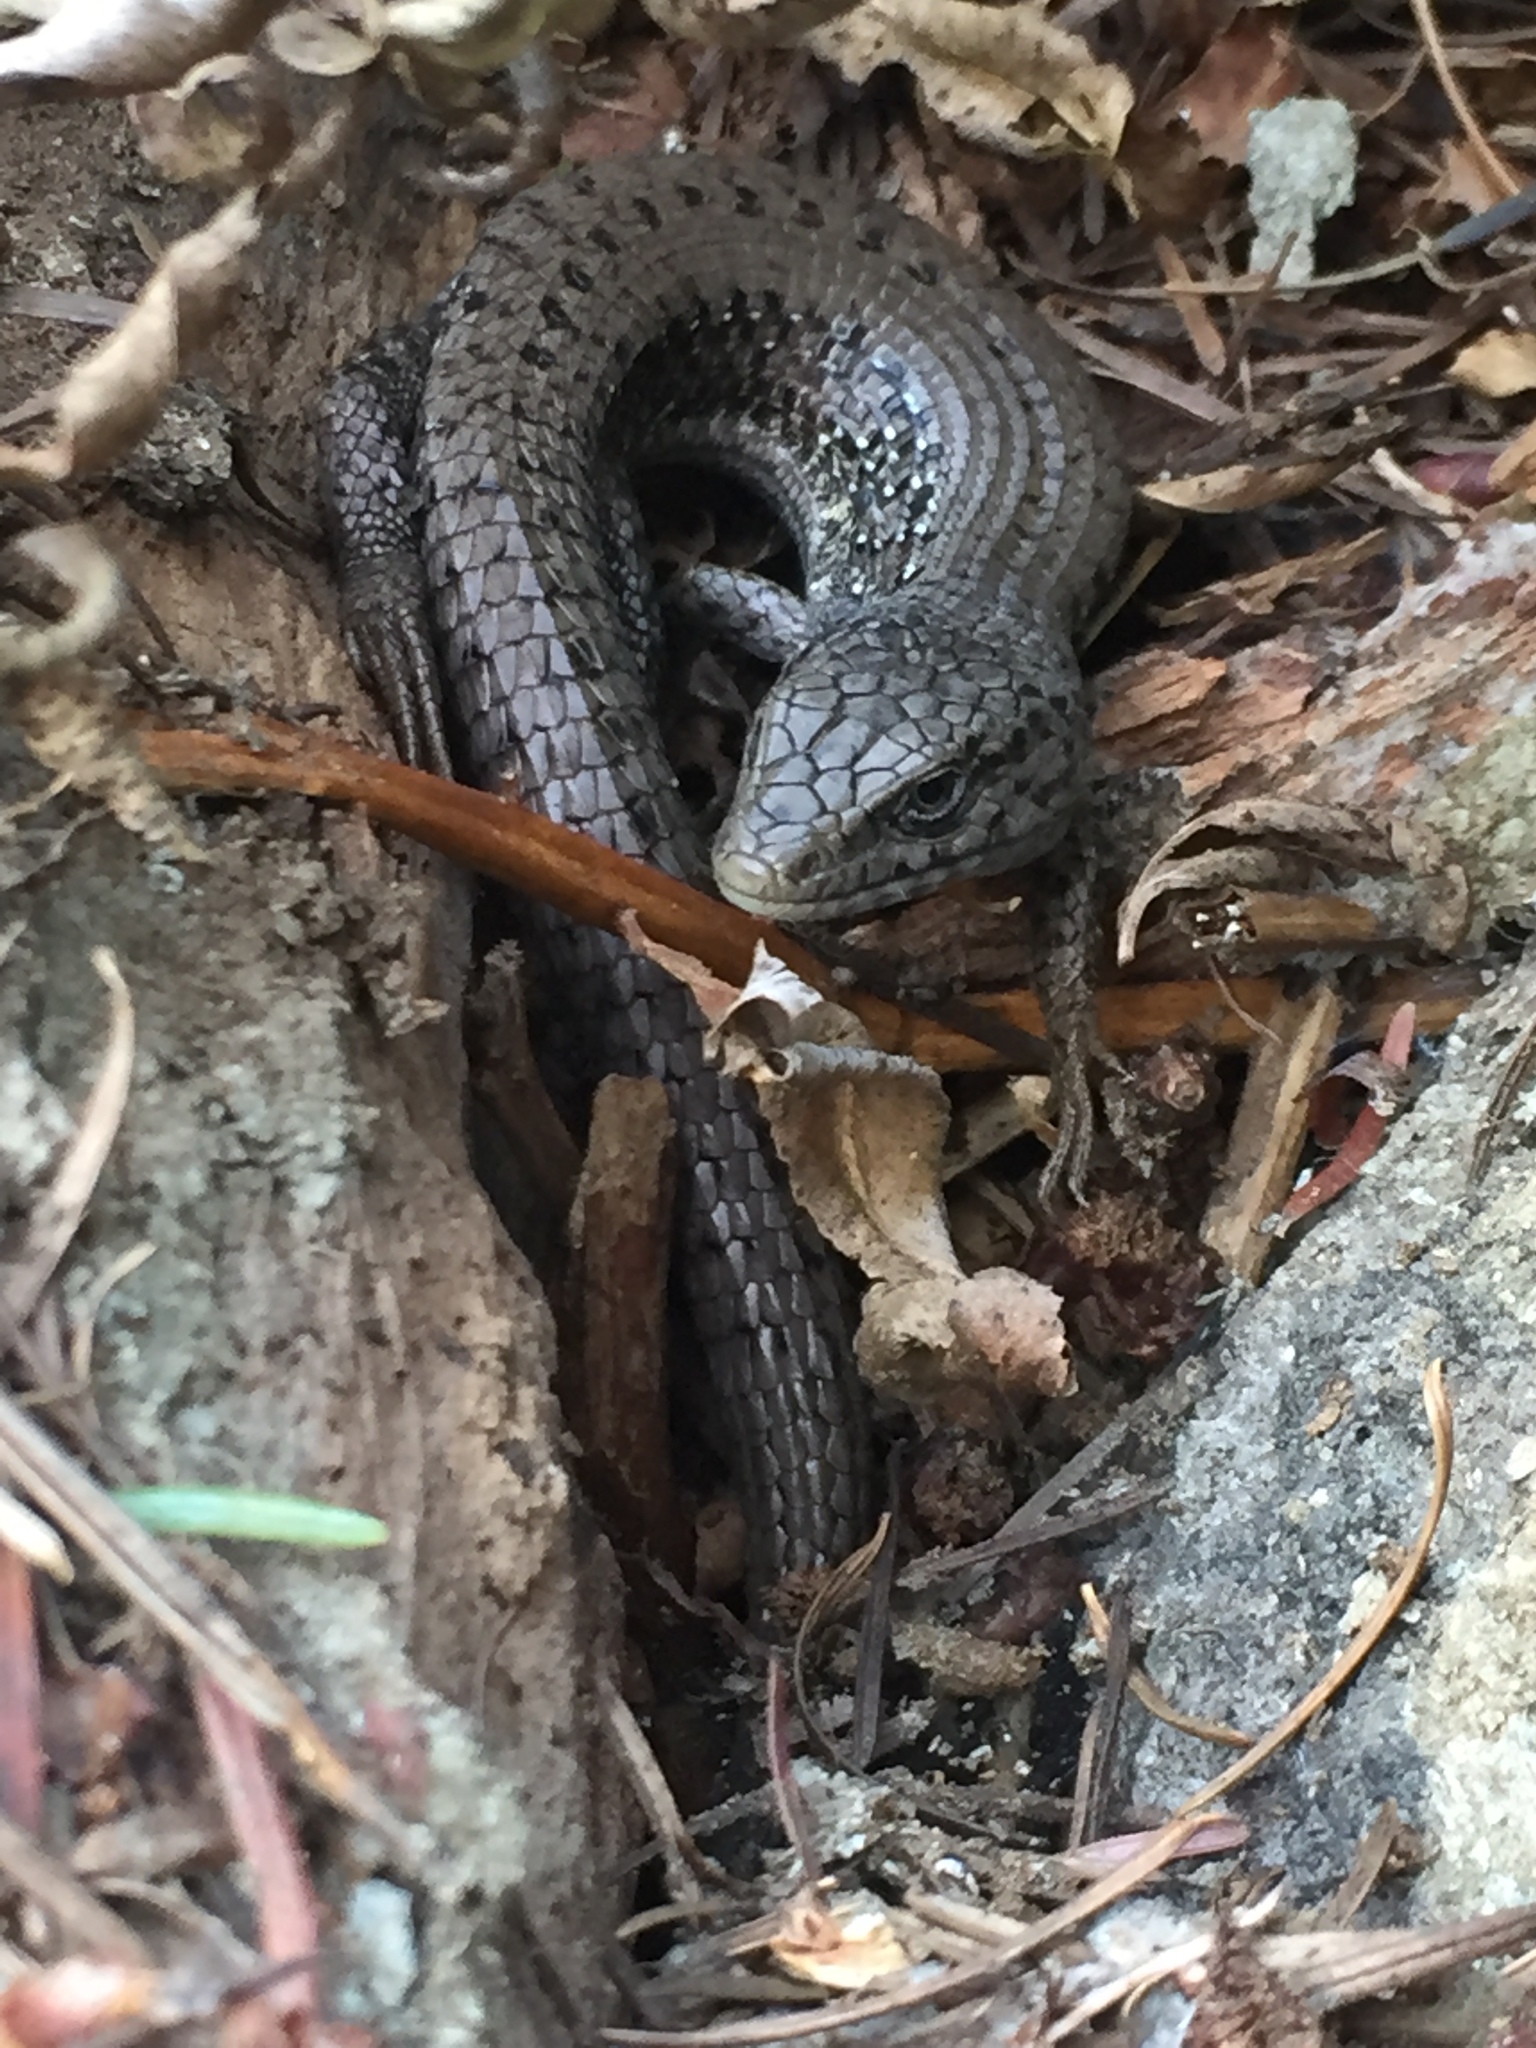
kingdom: Animalia
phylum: Chordata
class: Squamata
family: Anguidae
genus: Elgaria
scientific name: Elgaria coerulea
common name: Northern alligator lizard
